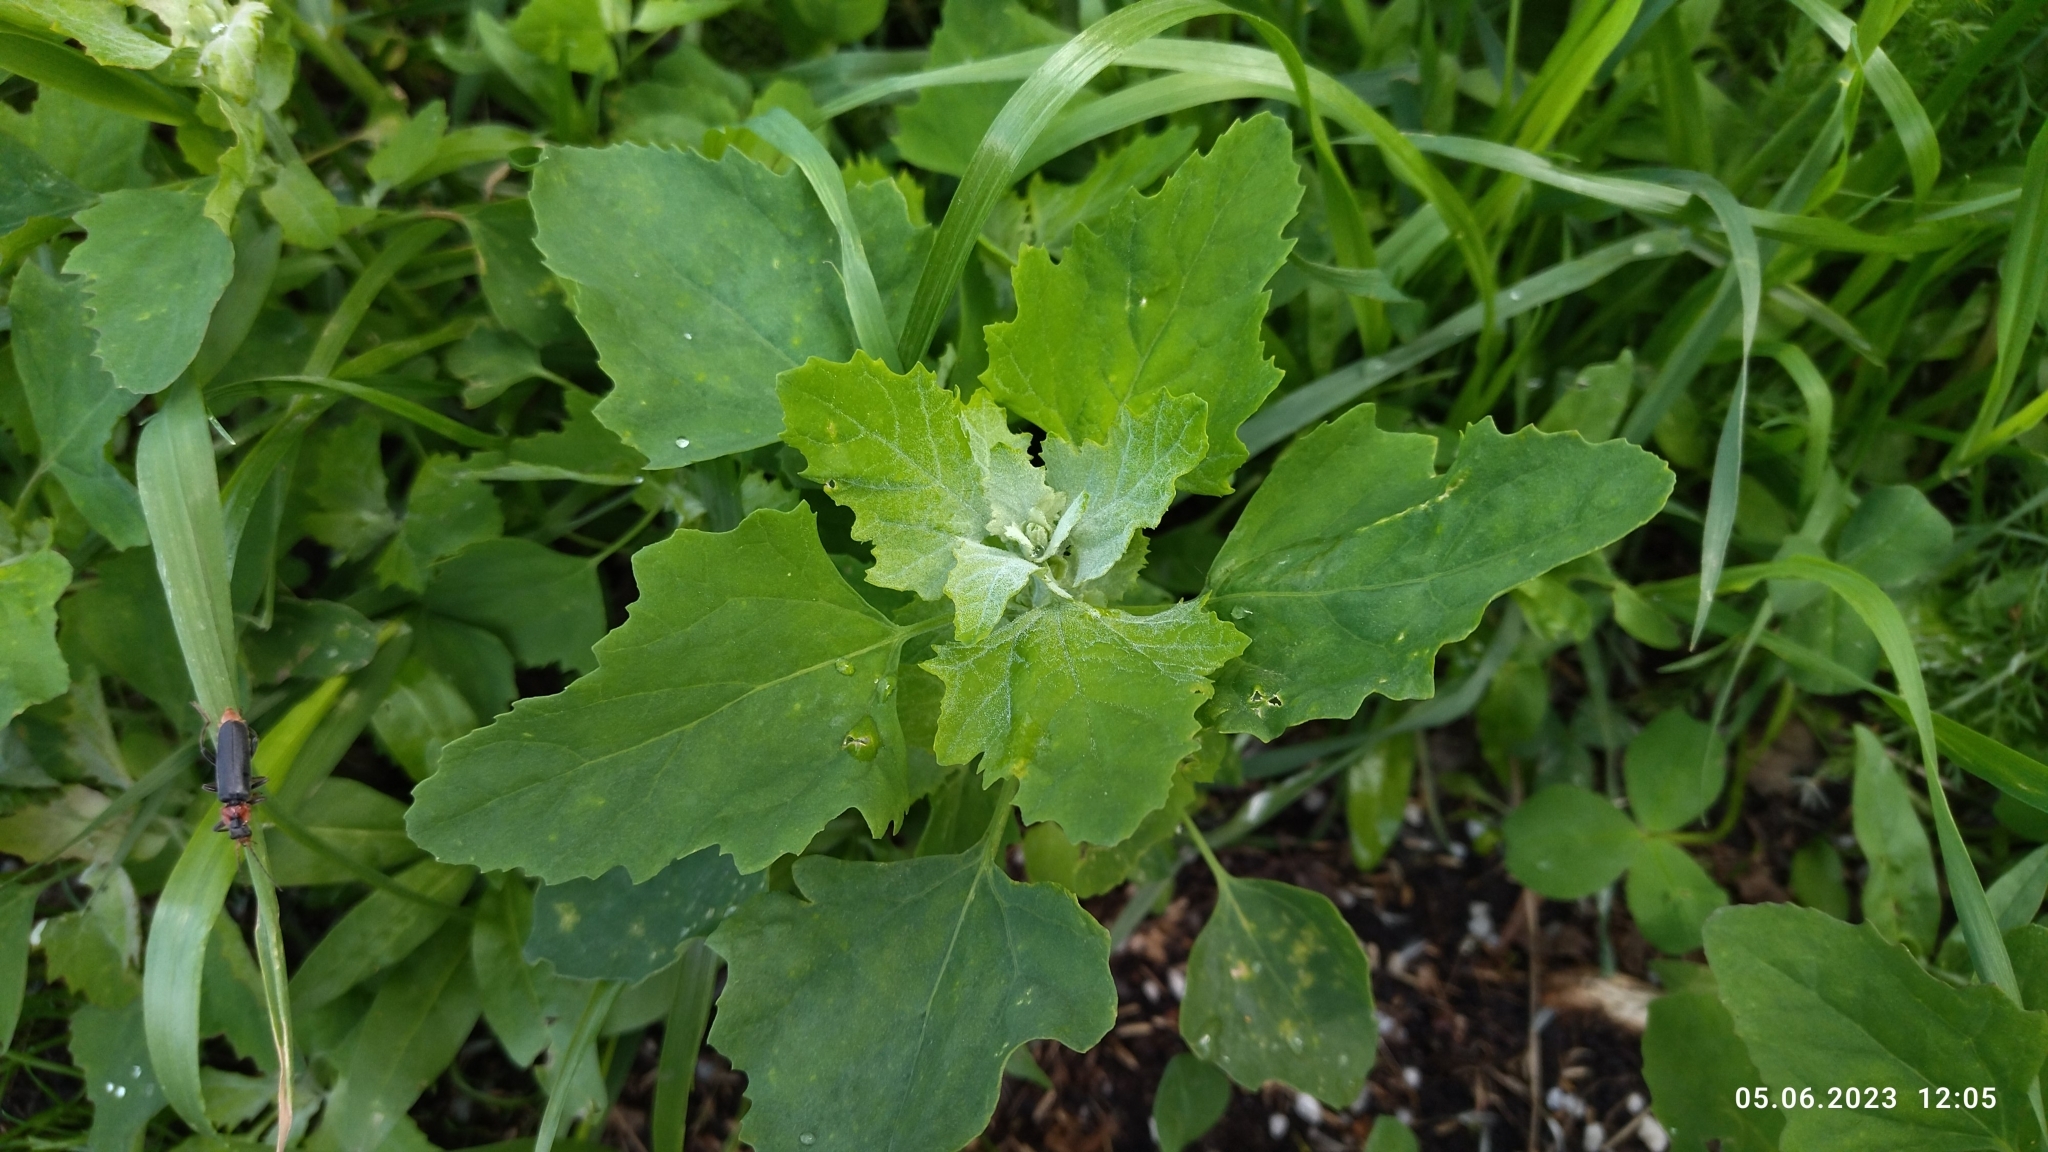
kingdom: Plantae
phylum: Tracheophyta
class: Magnoliopsida
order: Caryophyllales
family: Amaranthaceae
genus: Chenopodium
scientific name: Chenopodium album
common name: Fat-hen
